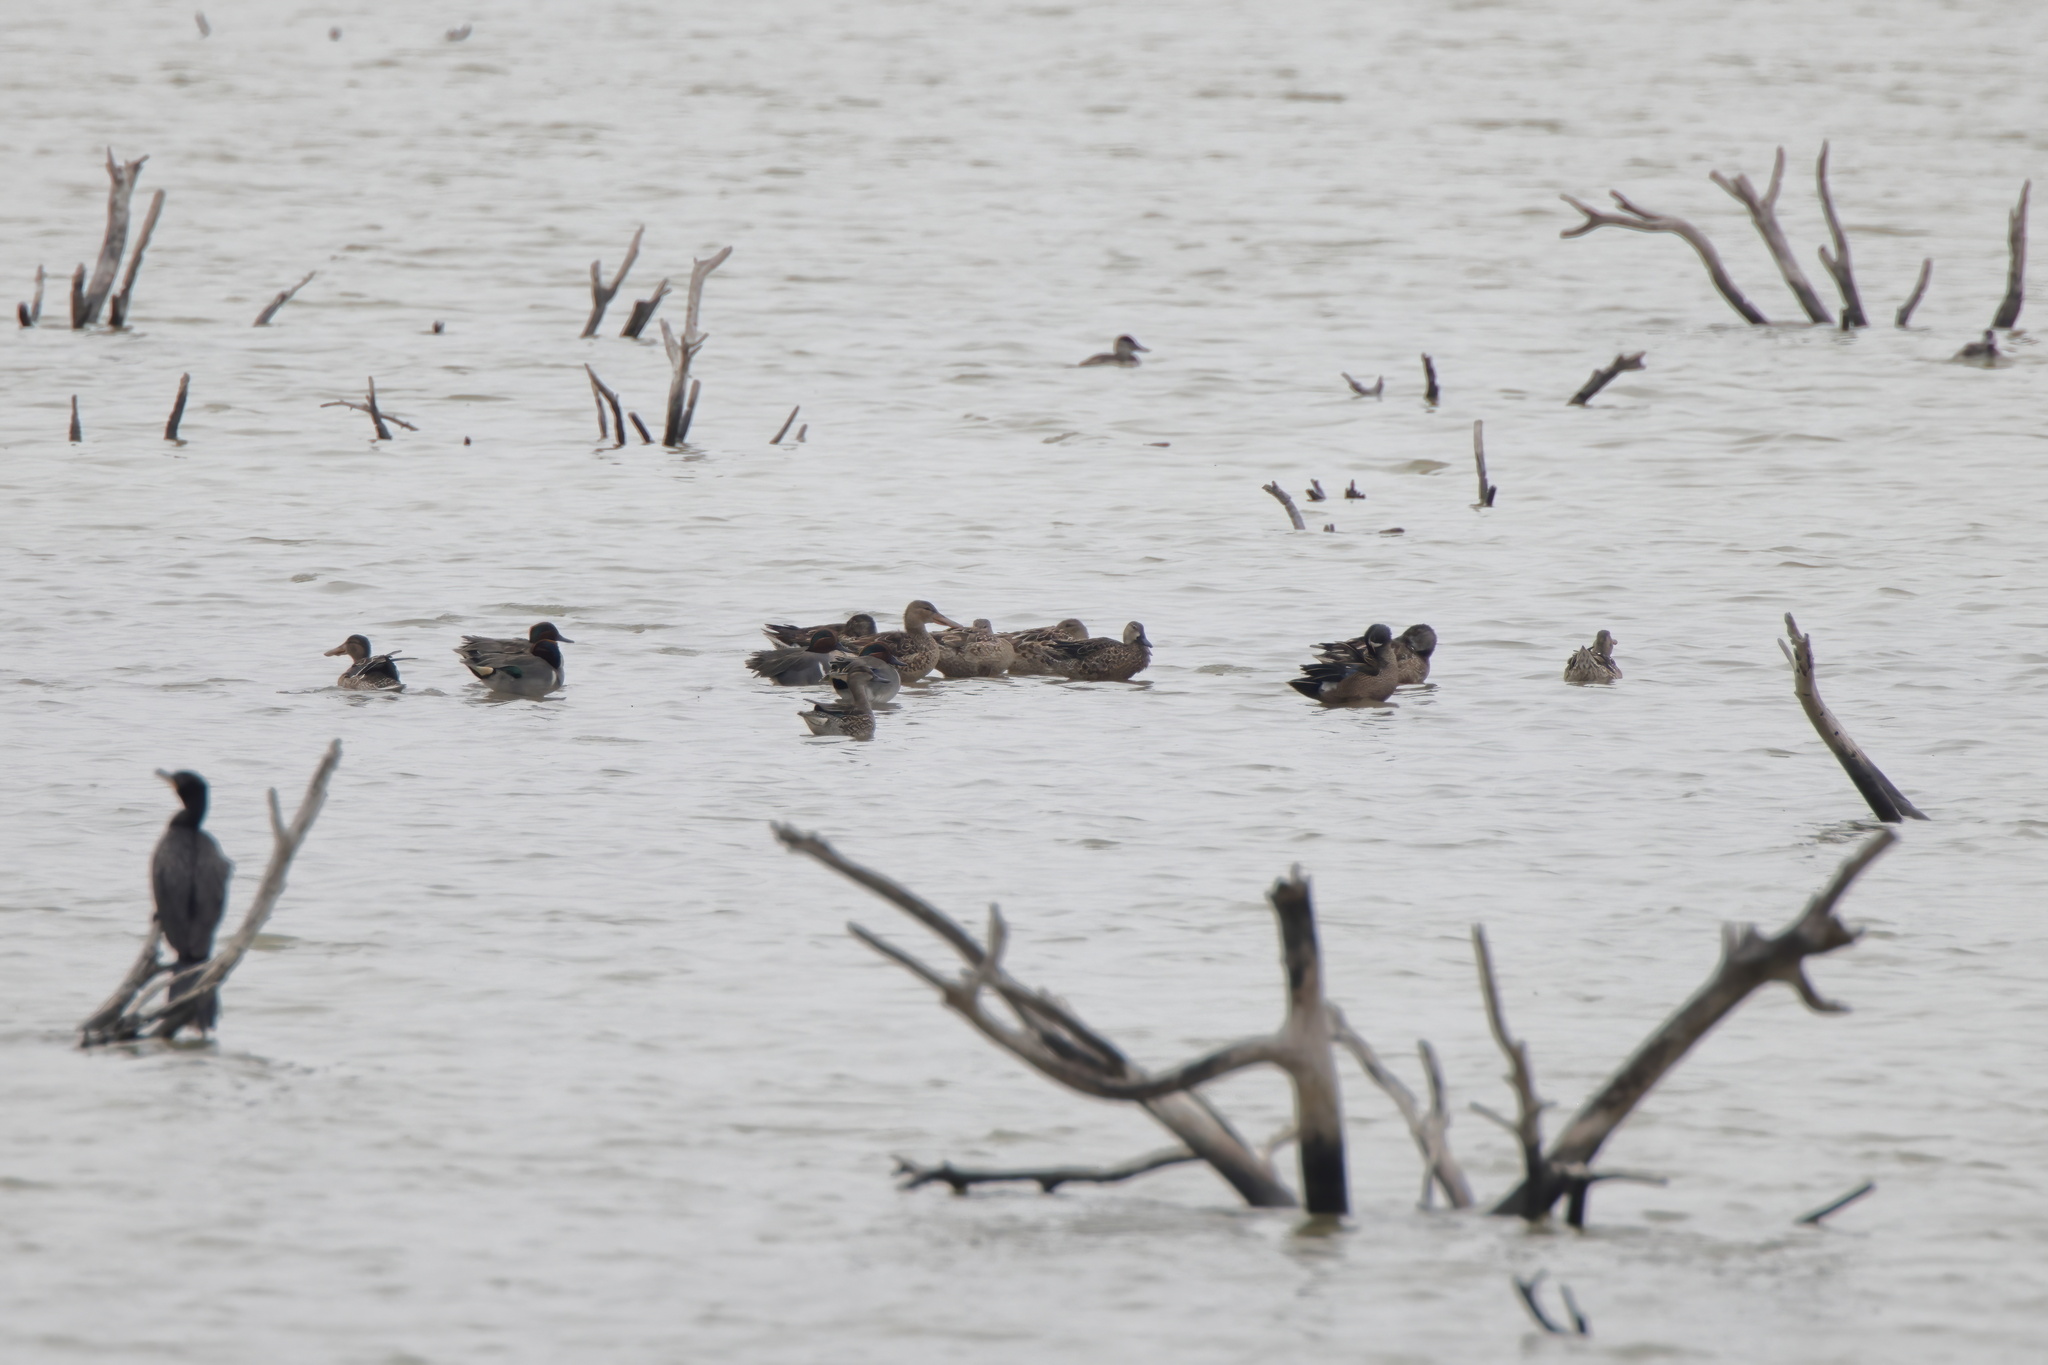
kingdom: Animalia
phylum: Chordata
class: Aves
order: Anseriformes
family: Anatidae
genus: Anas
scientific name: Anas crecca
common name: Eurasian teal
